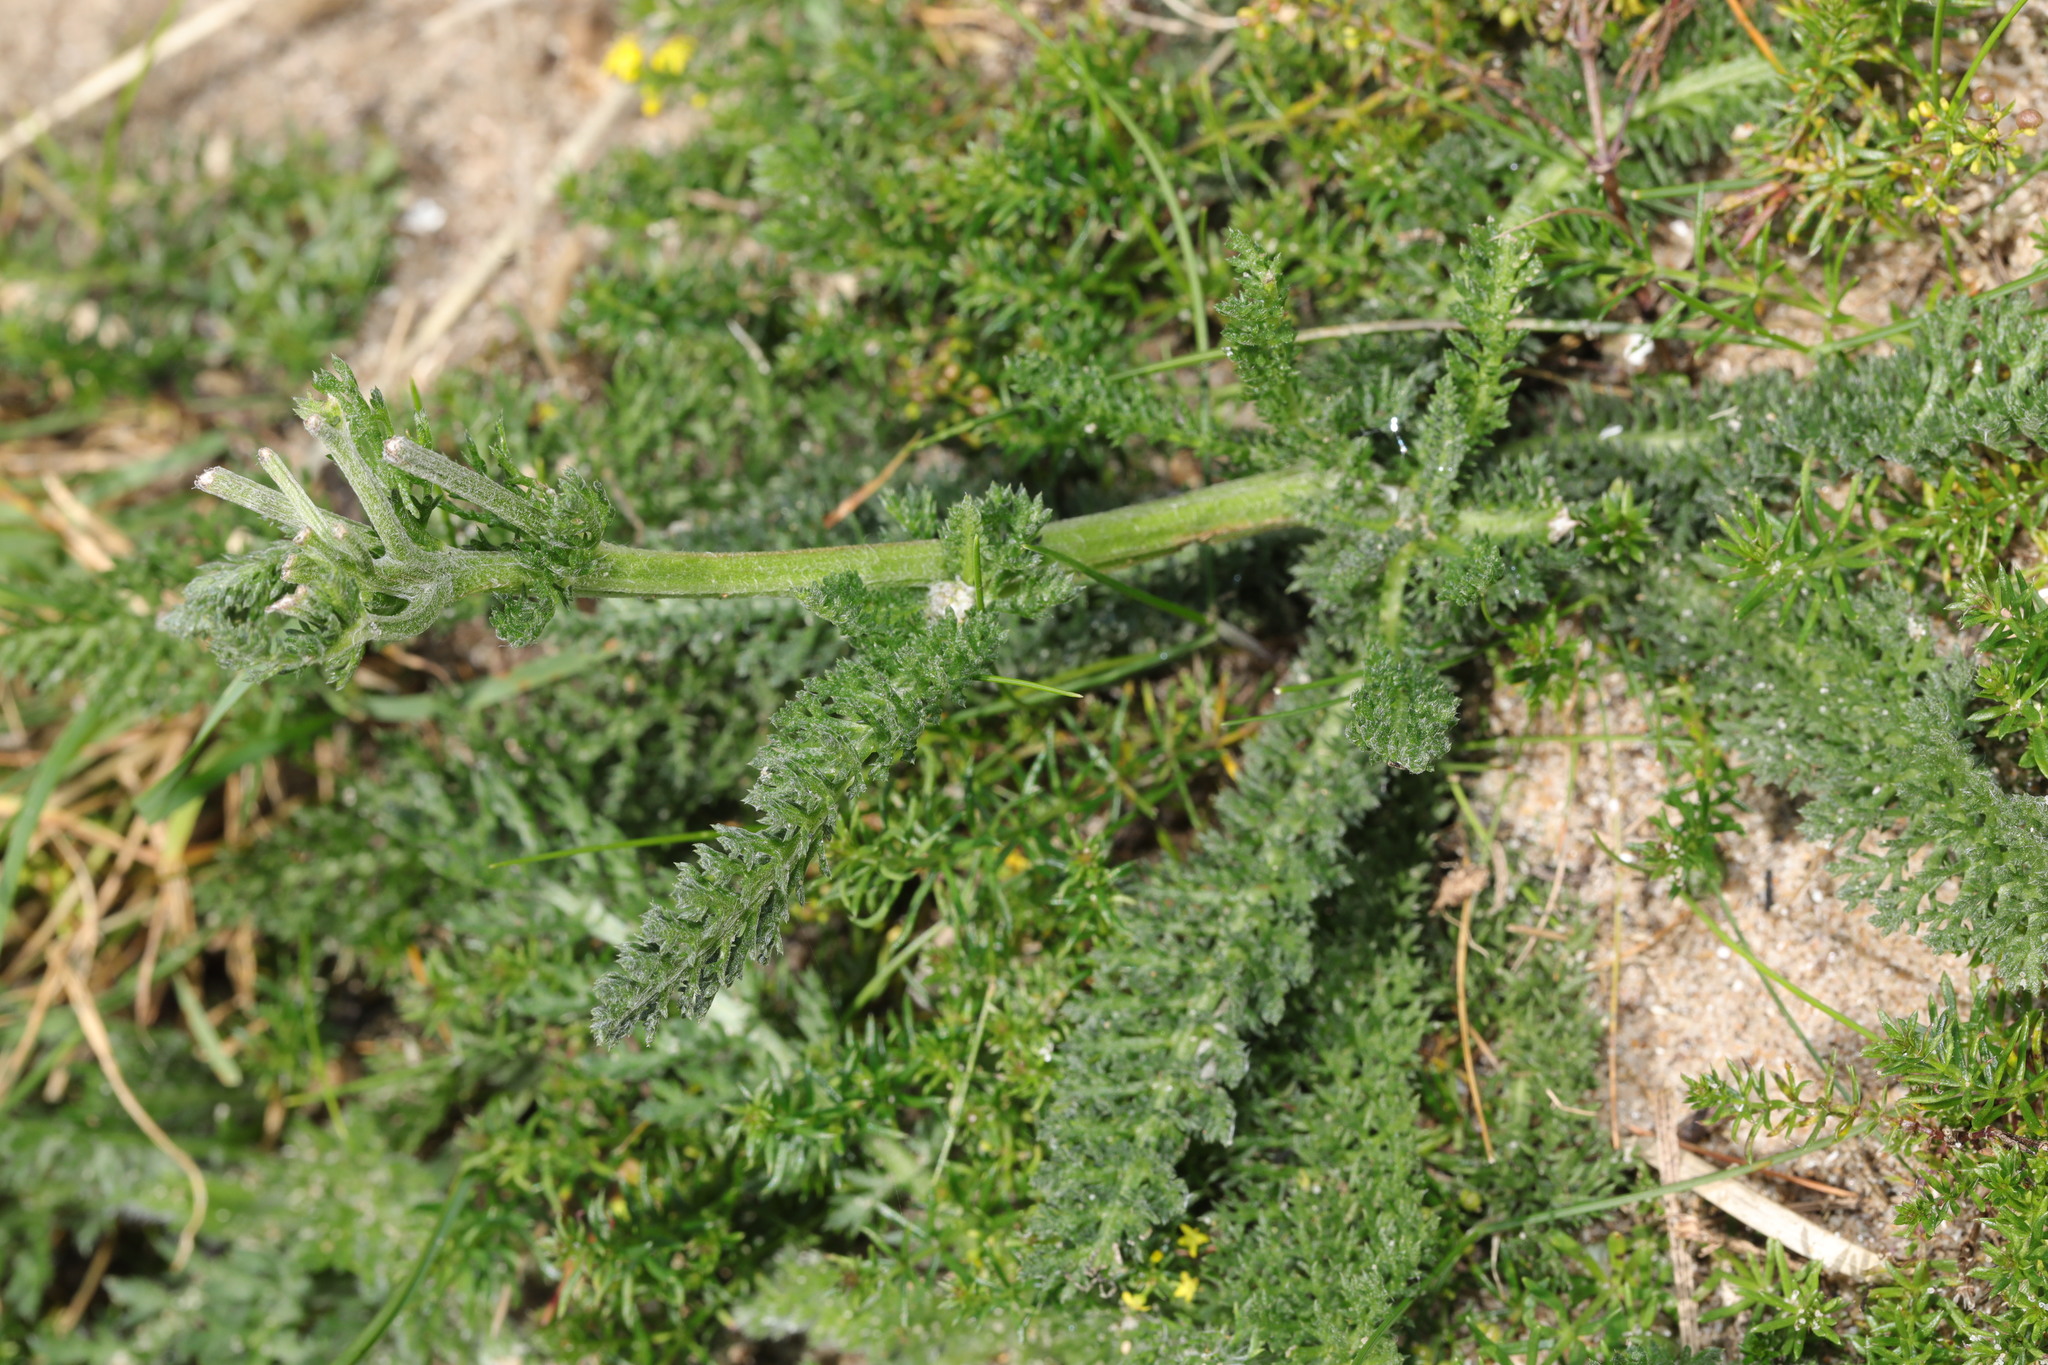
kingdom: Plantae
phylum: Tracheophyta
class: Magnoliopsida
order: Asterales
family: Asteraceae
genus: Achillea
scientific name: Achillea millefolium
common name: Yarrow
